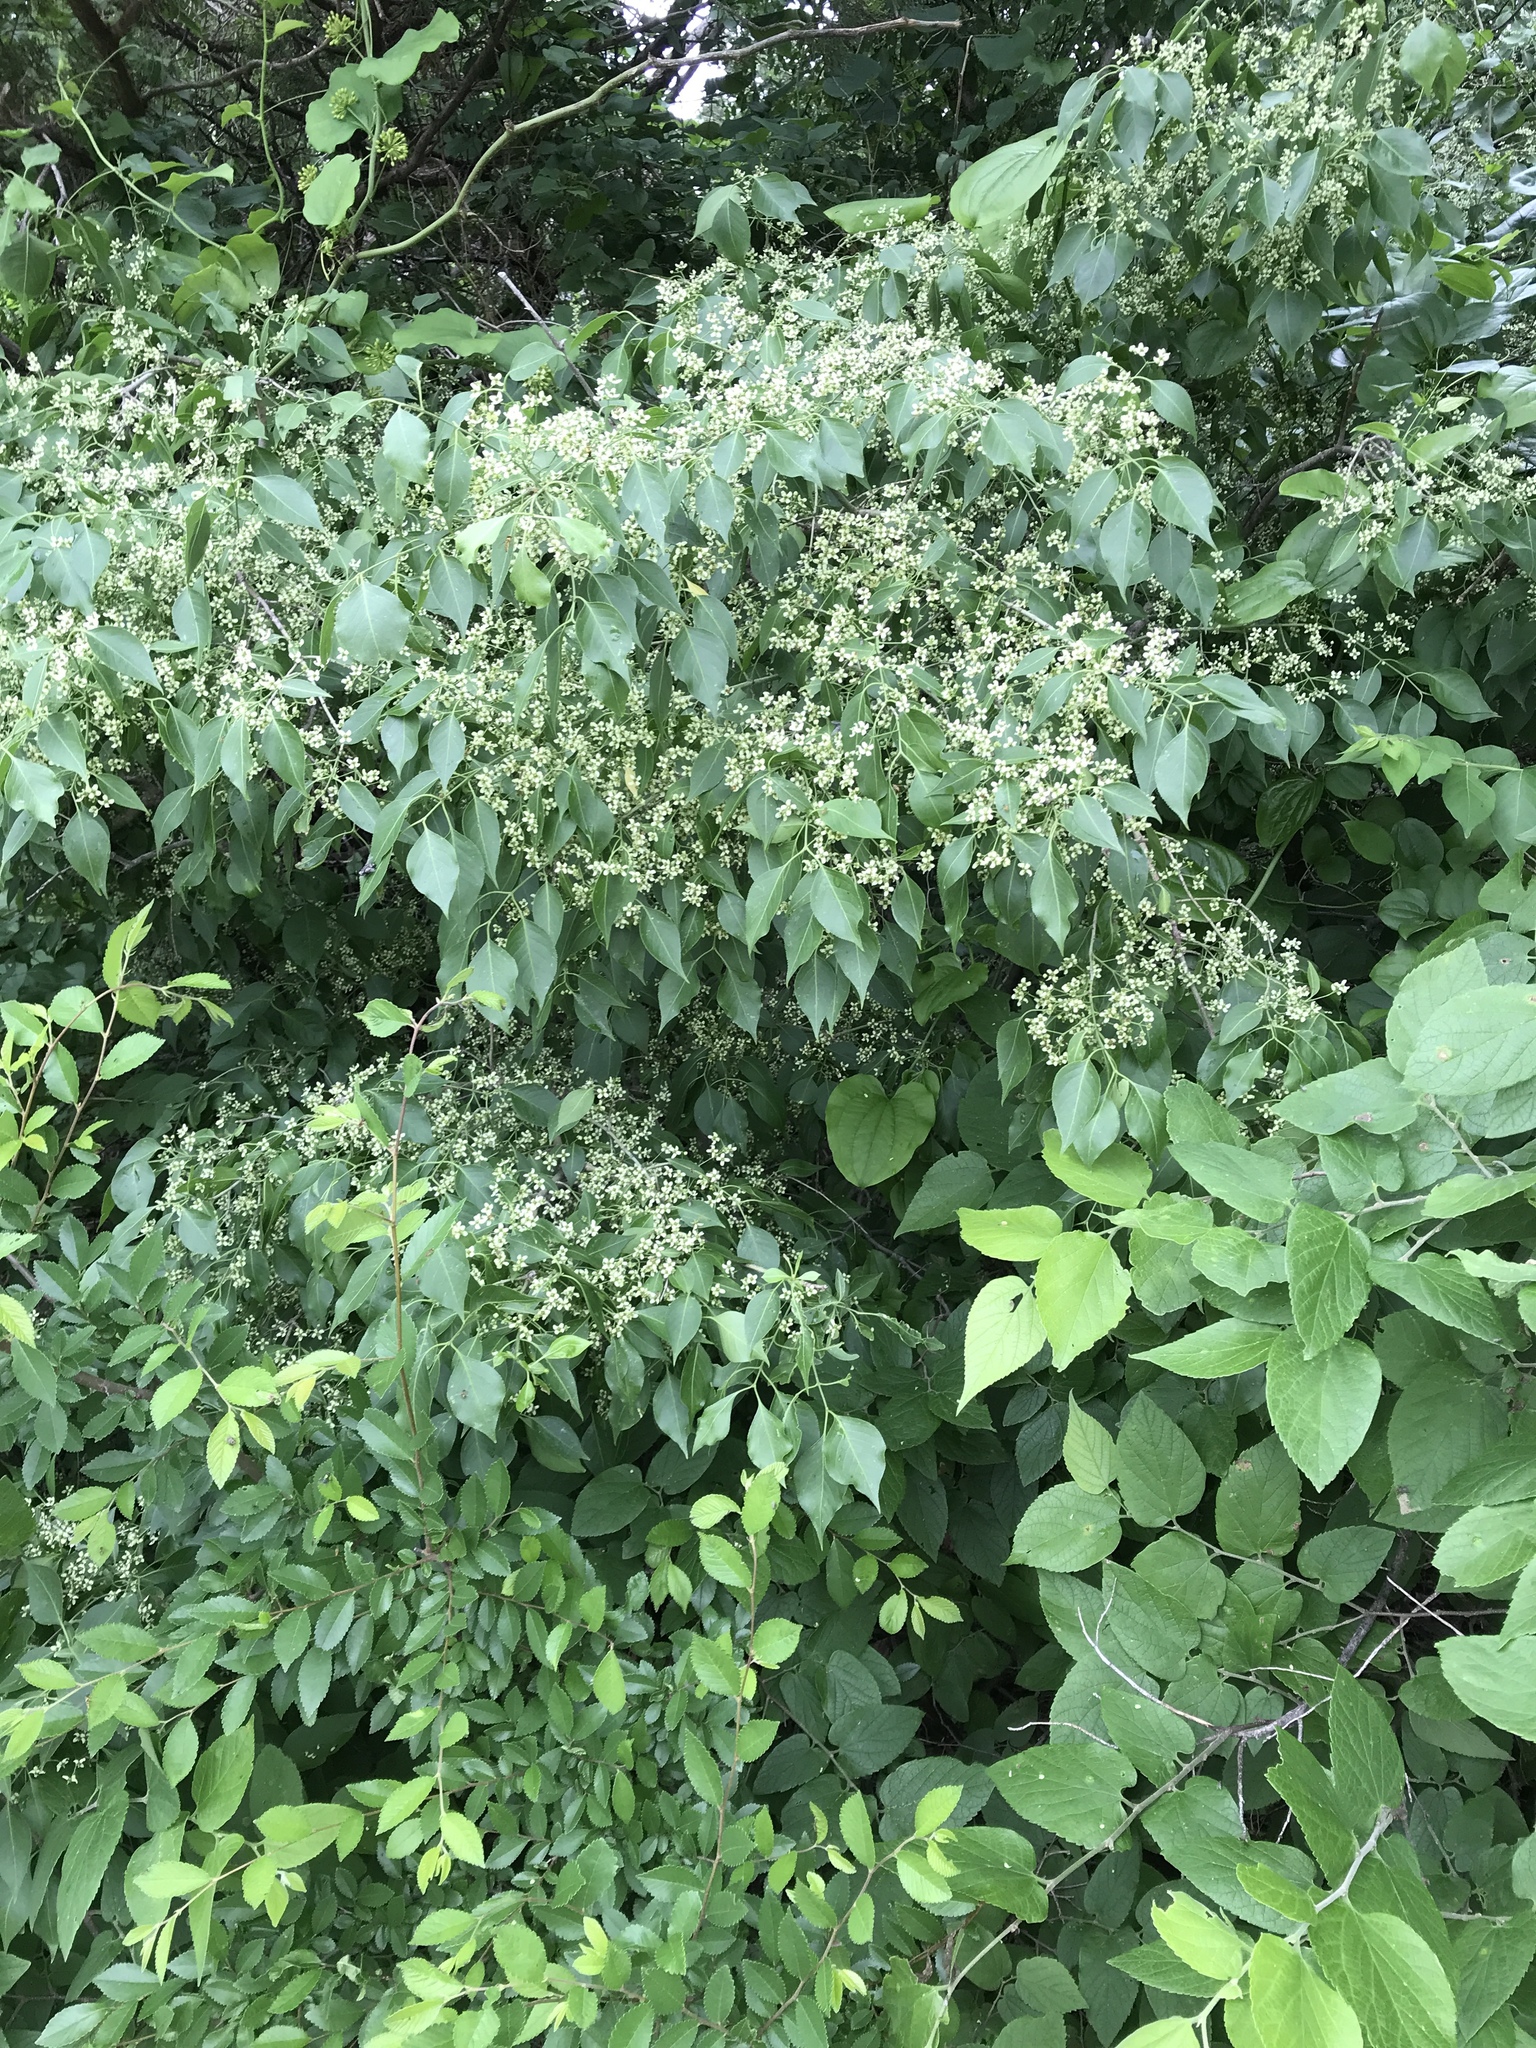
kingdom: Plantae
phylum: Tracheophyta
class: Magnoliopsida
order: Celastrales
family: Celastraceae
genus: Euonymus
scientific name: Euonymus europaeus
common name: Spindle
